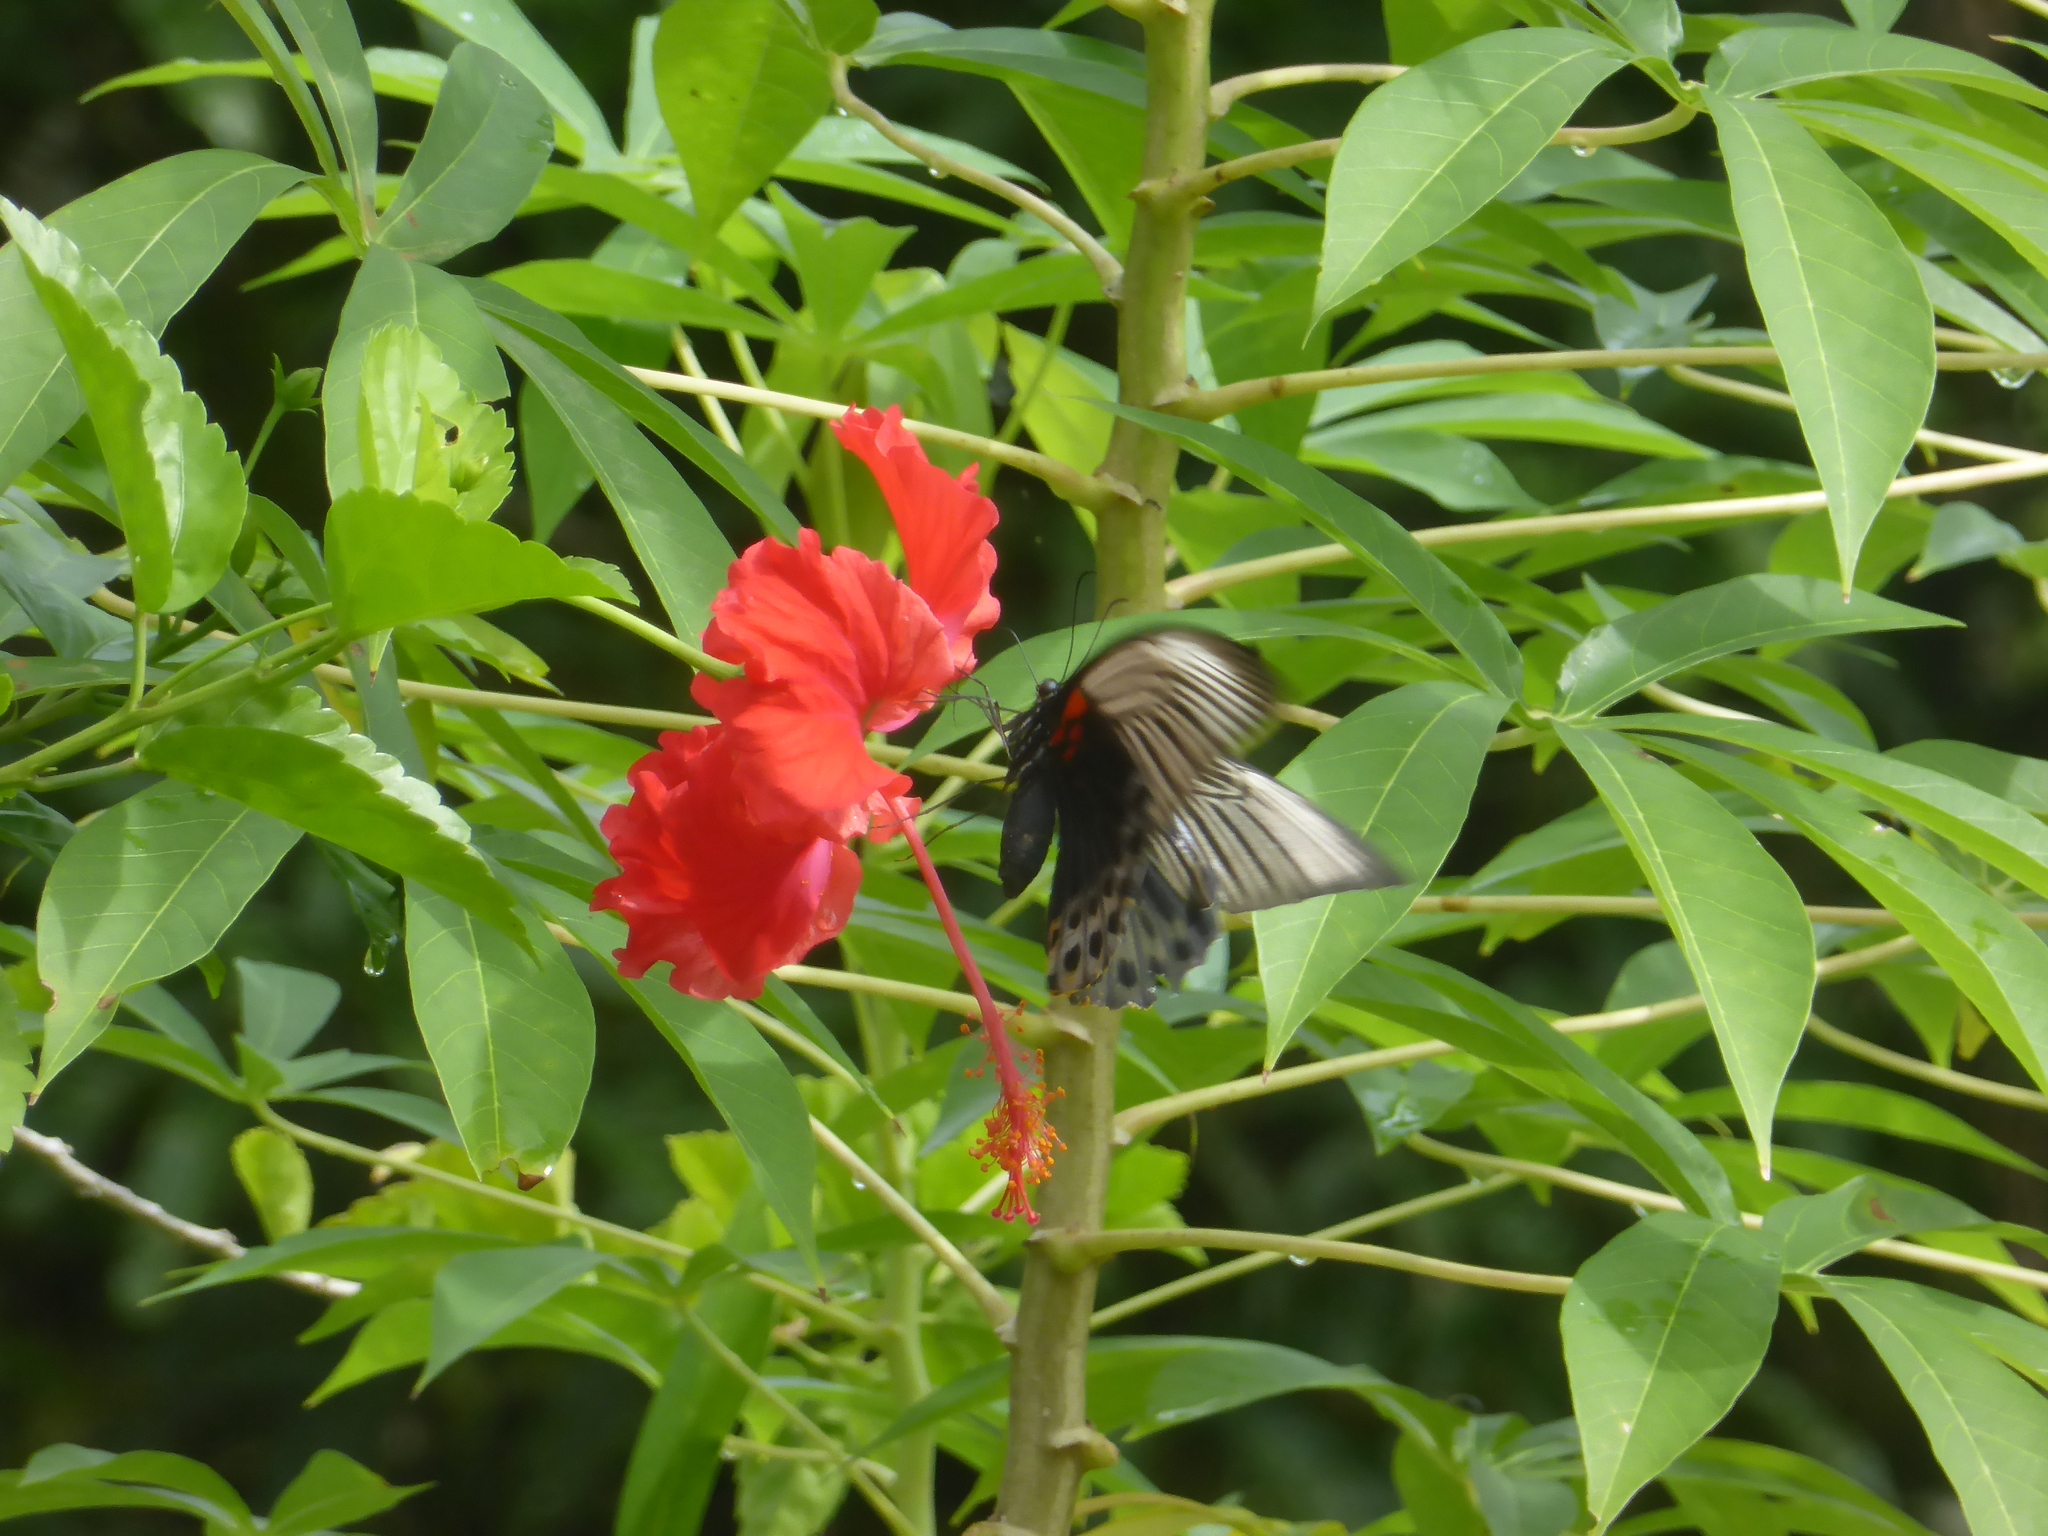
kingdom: Animalia
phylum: Arthropoda
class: Insecta
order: Lepidoptera
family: Papilionidae
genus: Papilio
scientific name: Papilio memnon
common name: Great mormon
